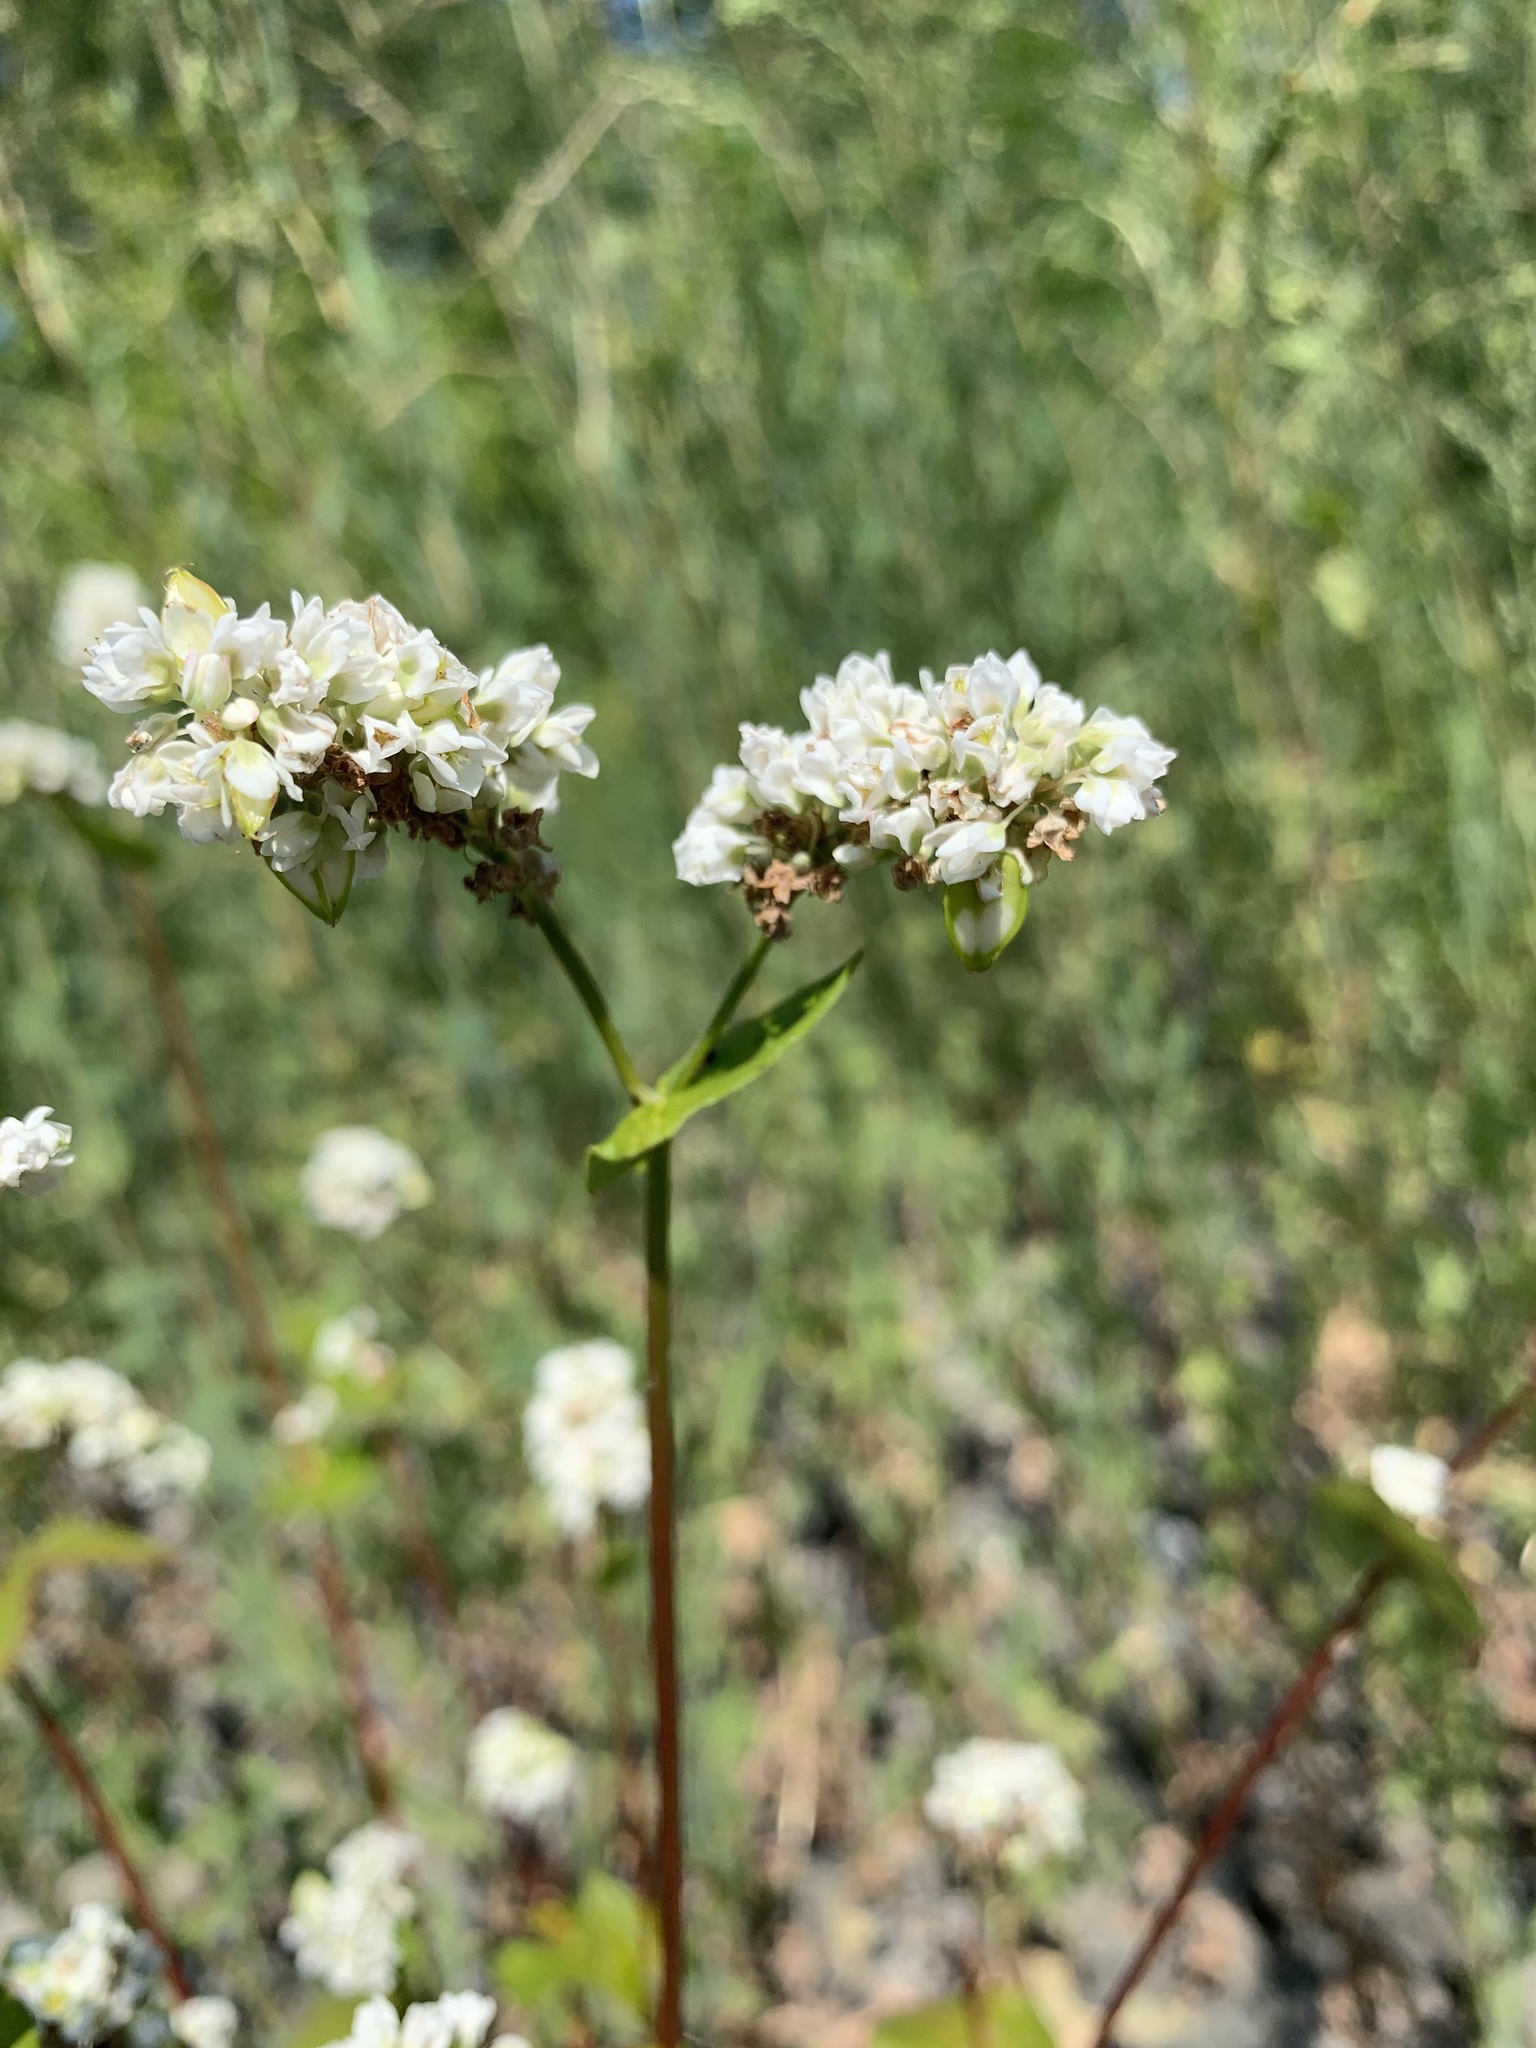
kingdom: Plantae
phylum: Tracheophyta
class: Magnoliopsida
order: Caryophyllales
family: Polygonaceae
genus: Fagopyrum
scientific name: Fagopyrum esculentum
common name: Buckwheat
